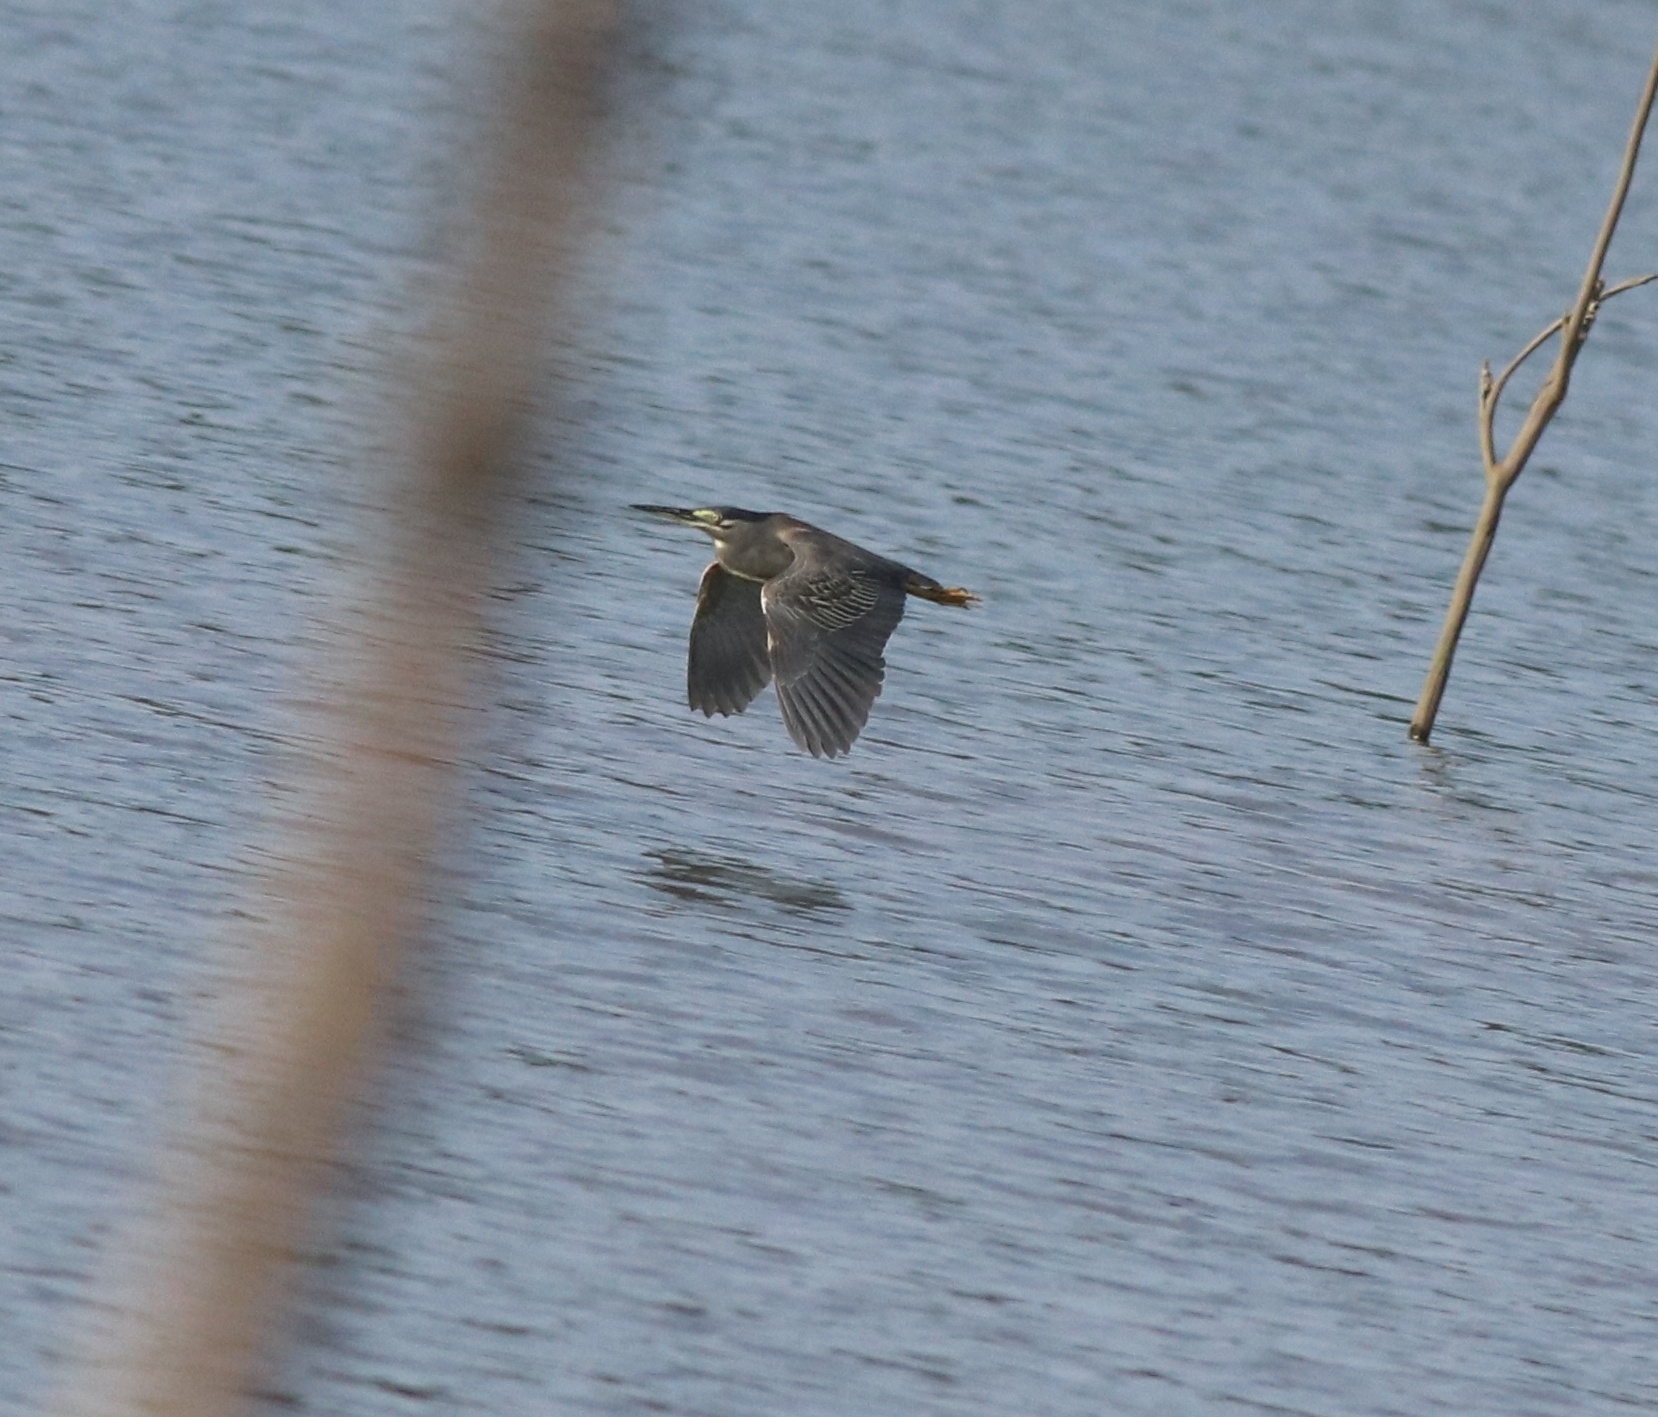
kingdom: Animalia
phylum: Chordata
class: Aves
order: Pelecaniformes
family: Ardeidae
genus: Butorides
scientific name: Butorides striata
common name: Striated heron
